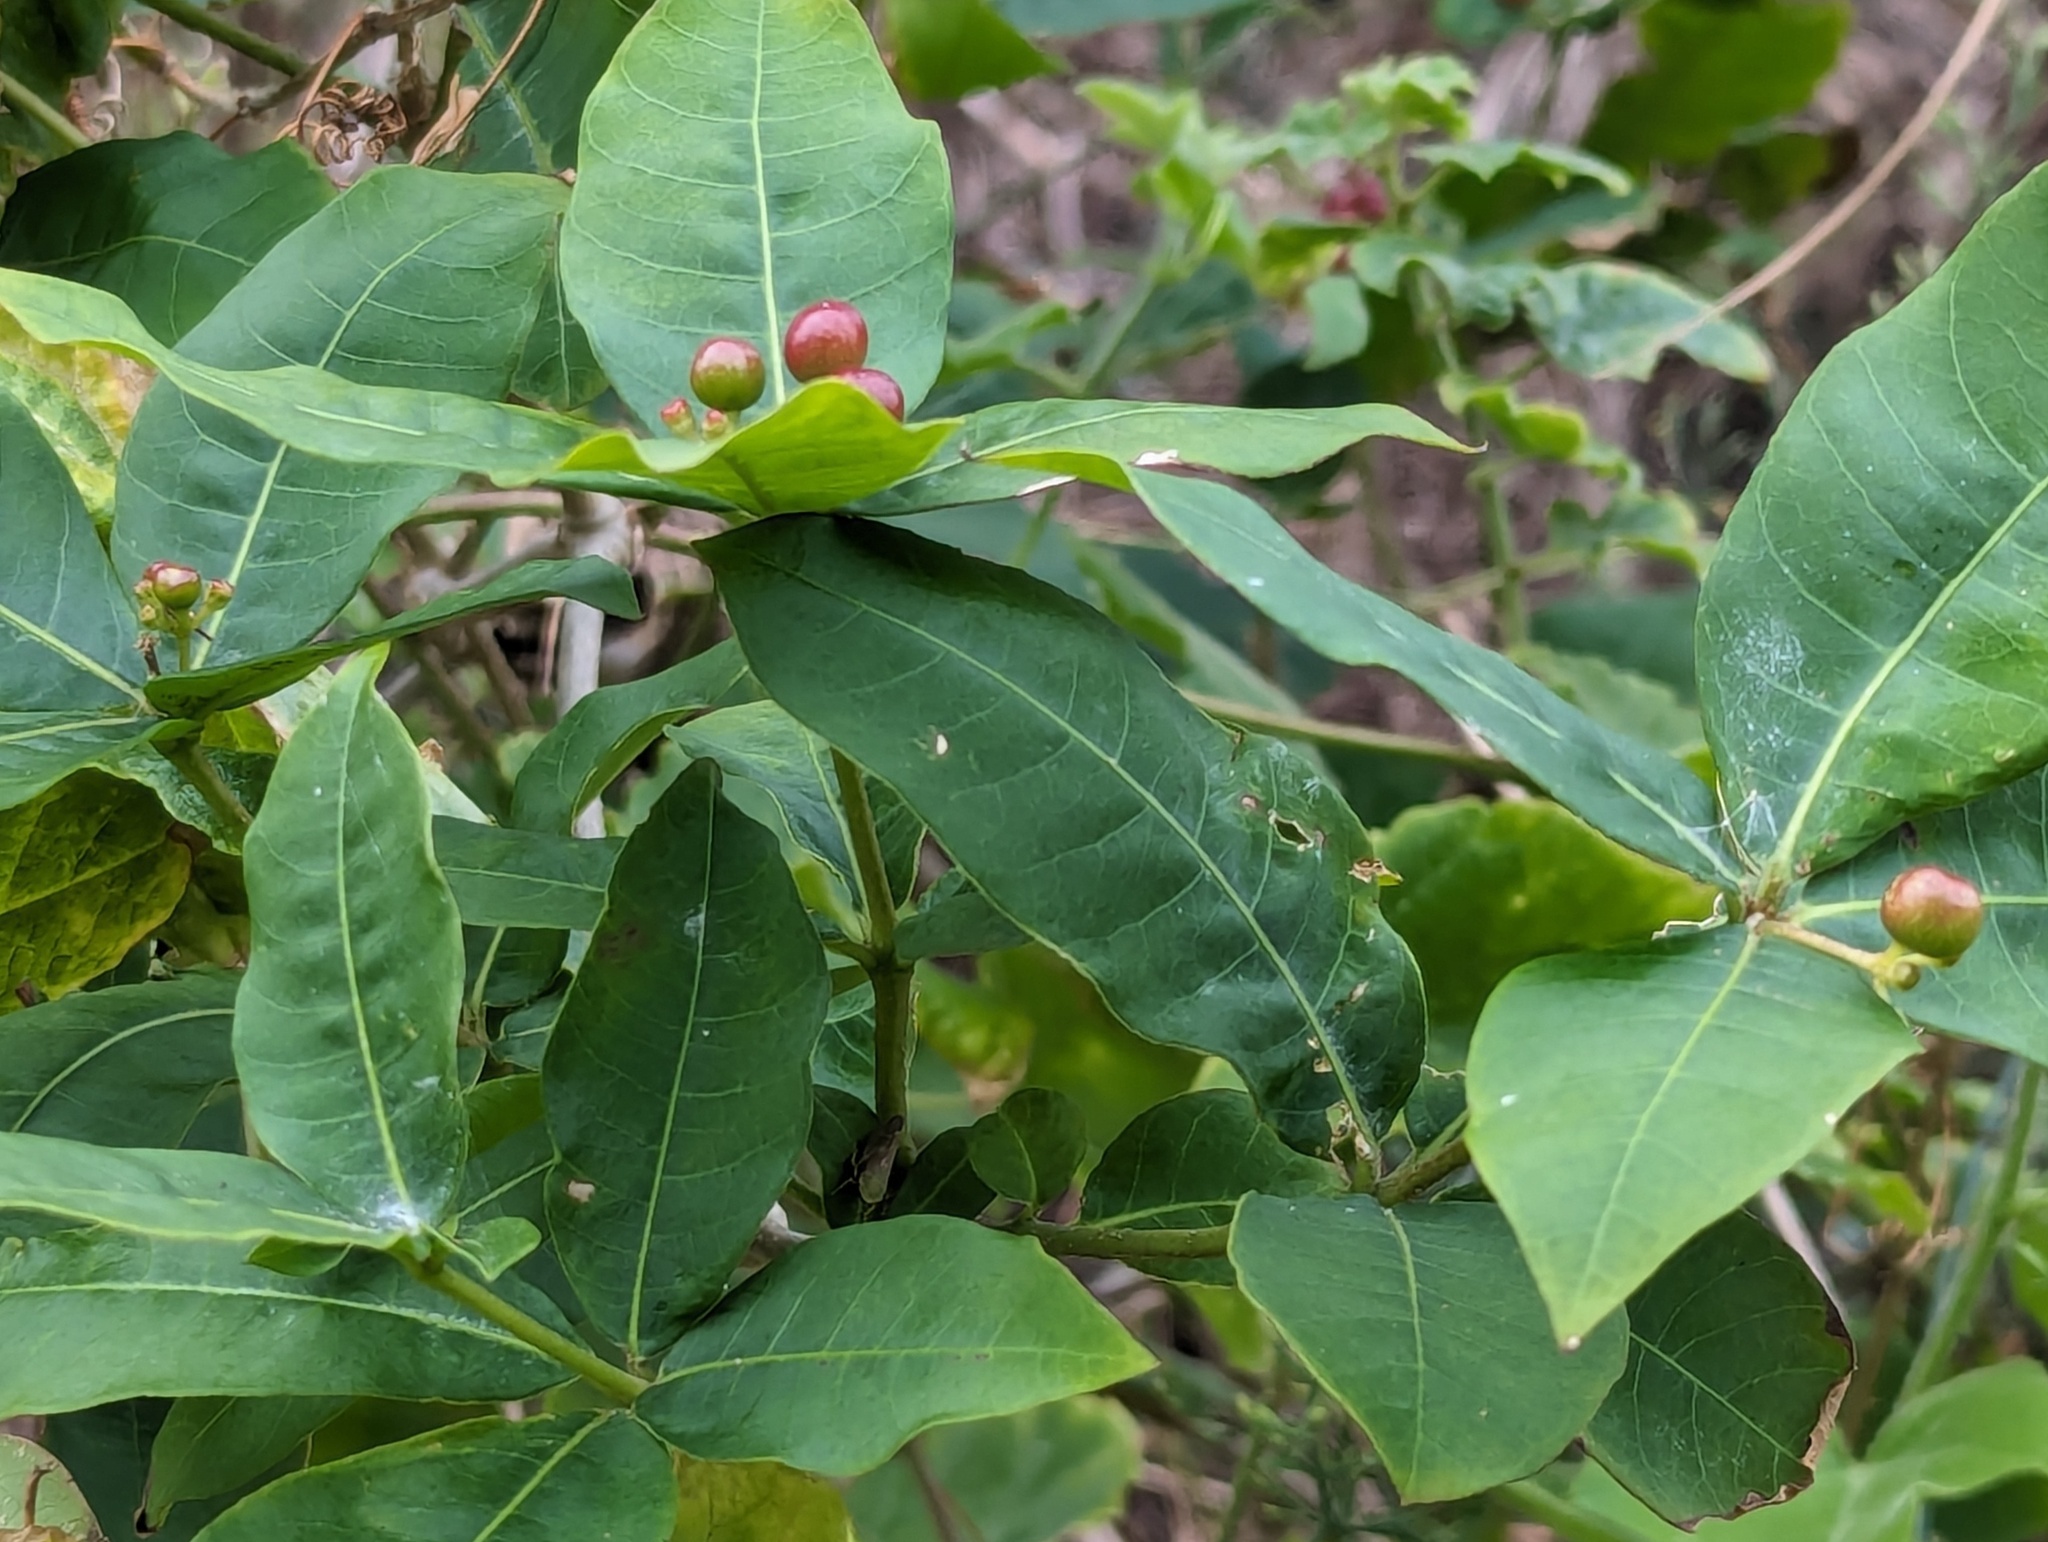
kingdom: Plantae
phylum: Tracheophyta
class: Magnoliopsida
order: Gentianales
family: Apocynaceae
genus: Rauvolfia
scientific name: Rauvolfia tetraphylla
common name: Four-leaf devil-pepper
